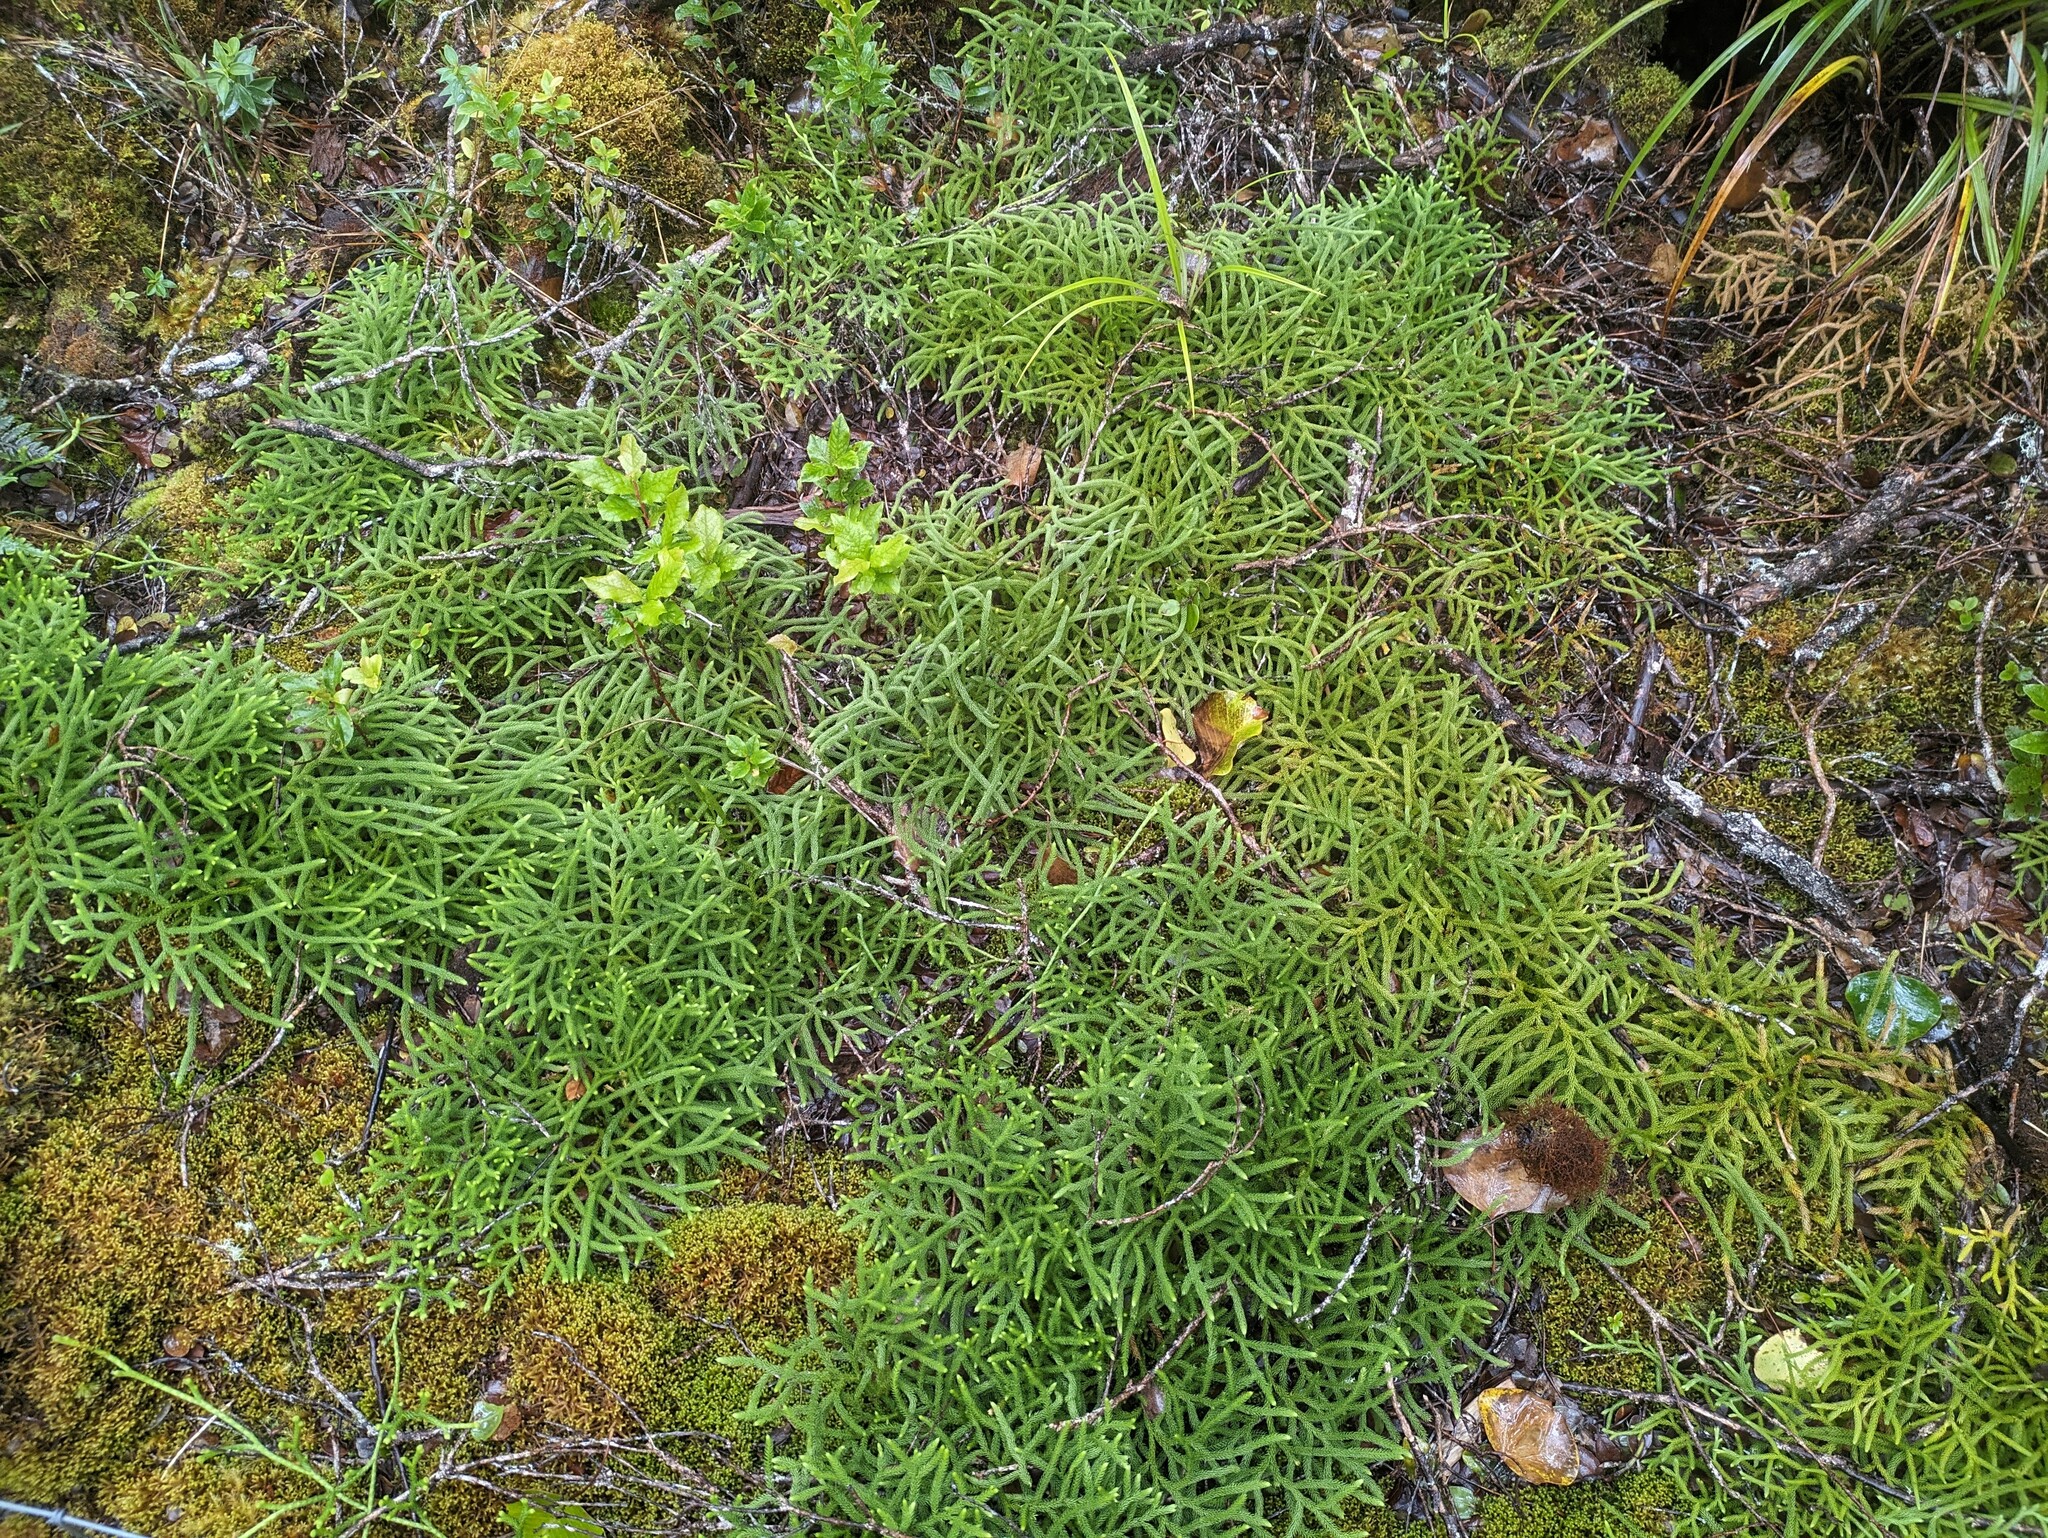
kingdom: Plantae
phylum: Tracheophyta
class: Lycopodiopsida
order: Lycopodiales
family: Lycopodiaceae
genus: Lycopodium
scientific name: Lycopodium venustulum
